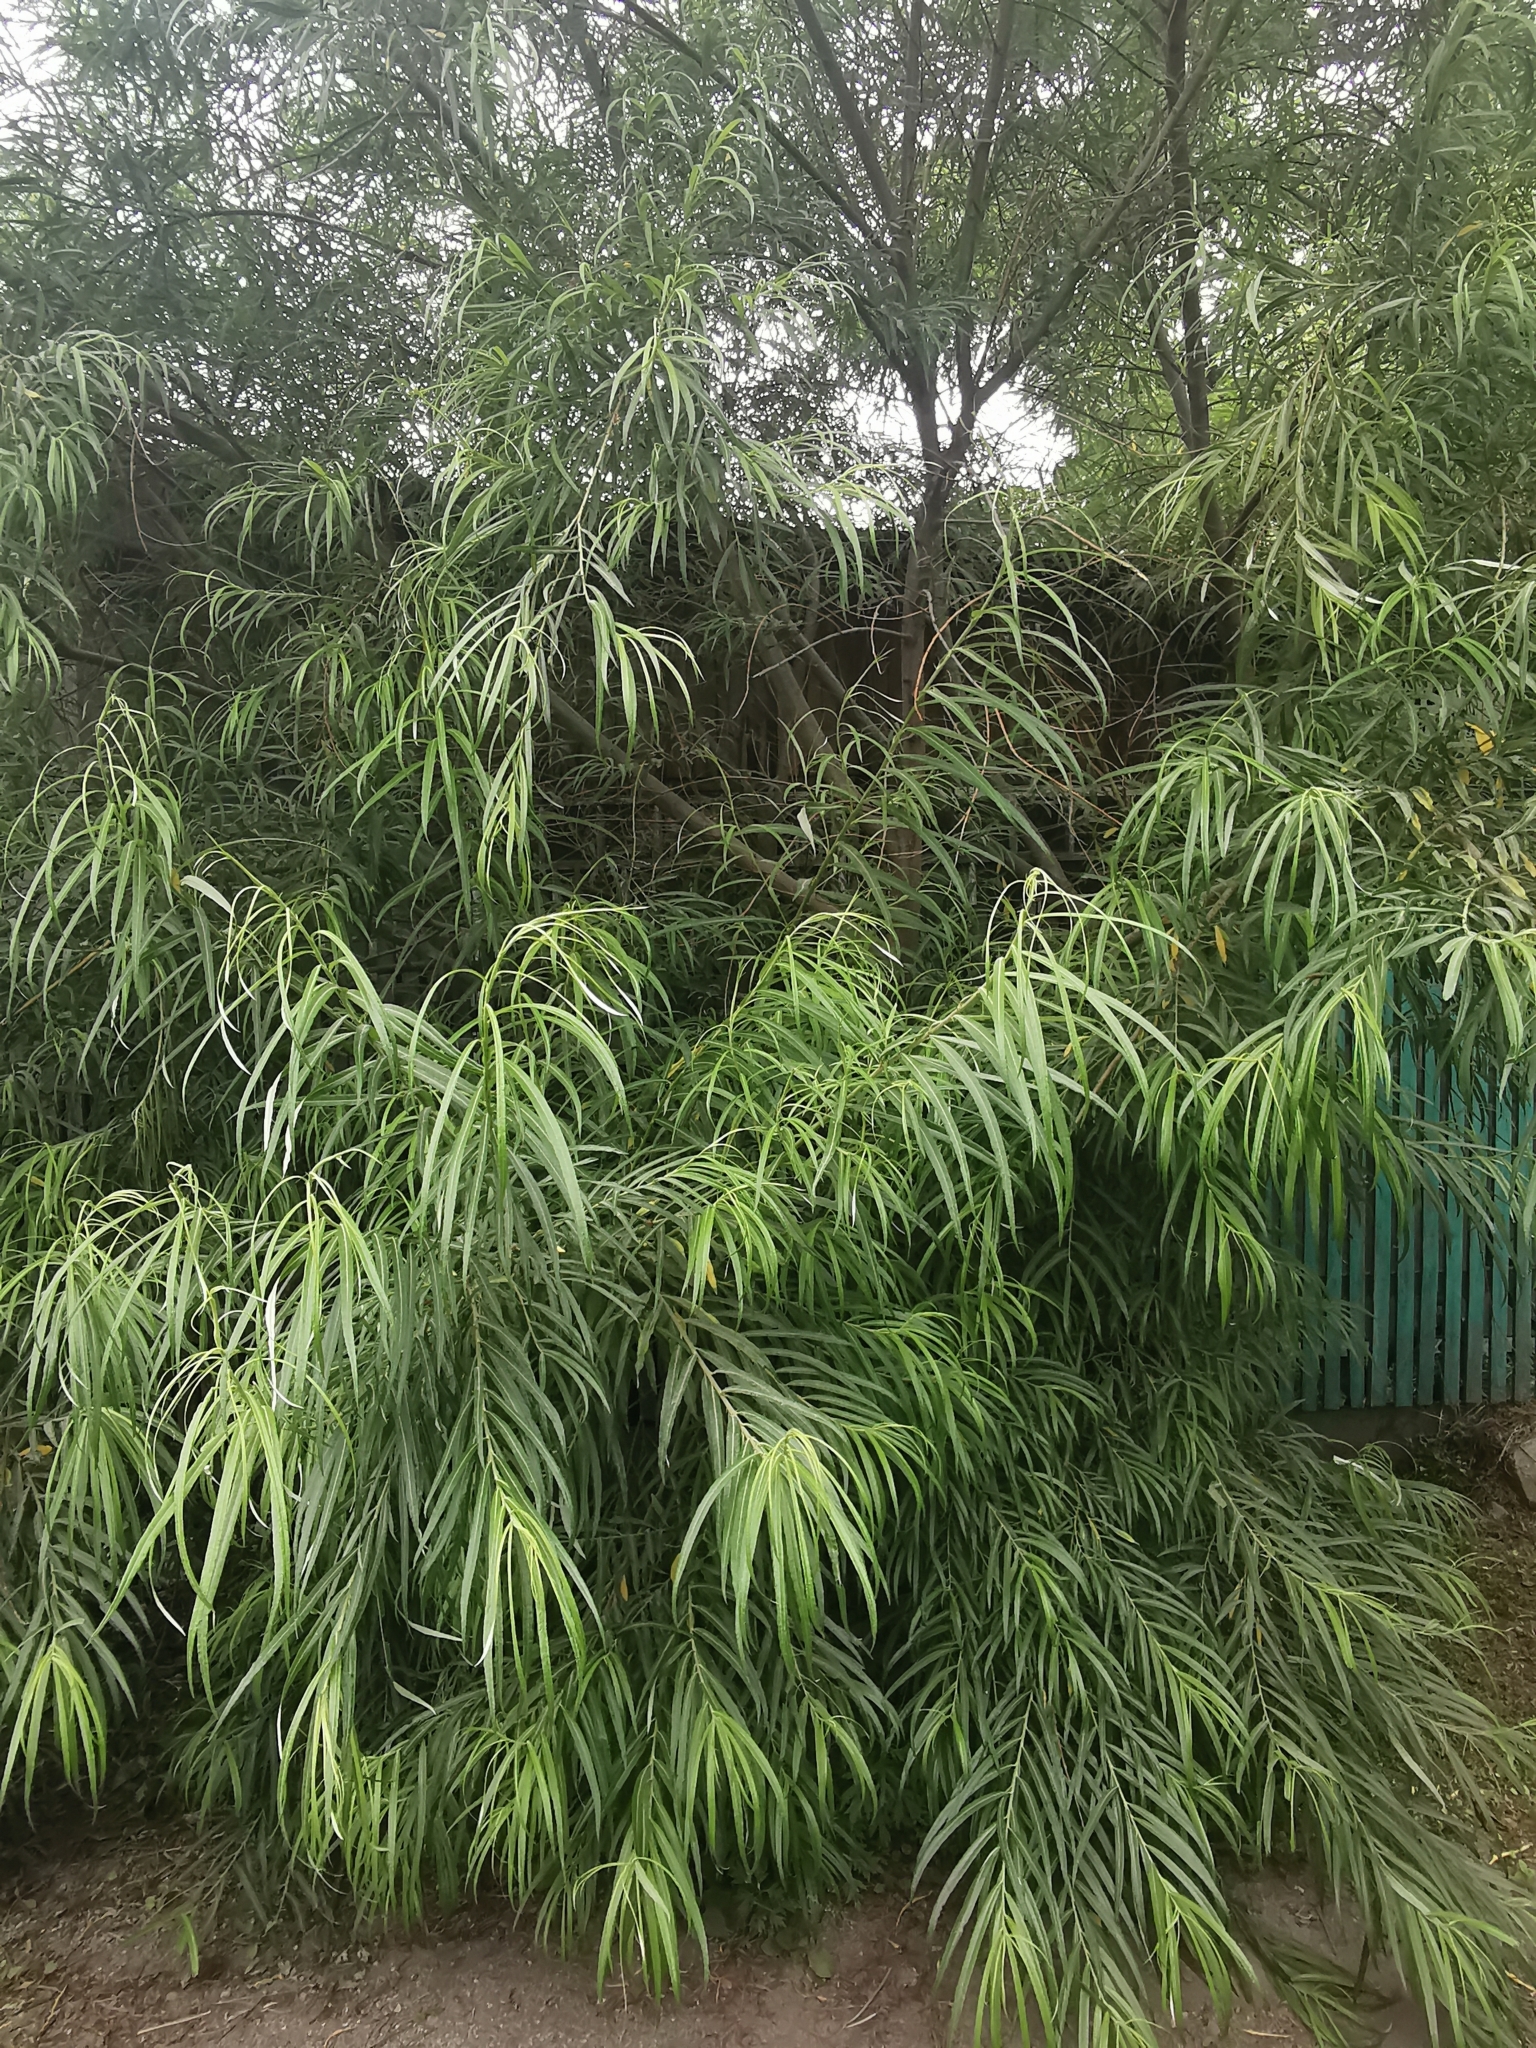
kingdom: Plantae
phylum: Tracheophyta
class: Magnoliopsida
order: Malpighiales
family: Salicaceae
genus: Salix
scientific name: Salix schwerinii
